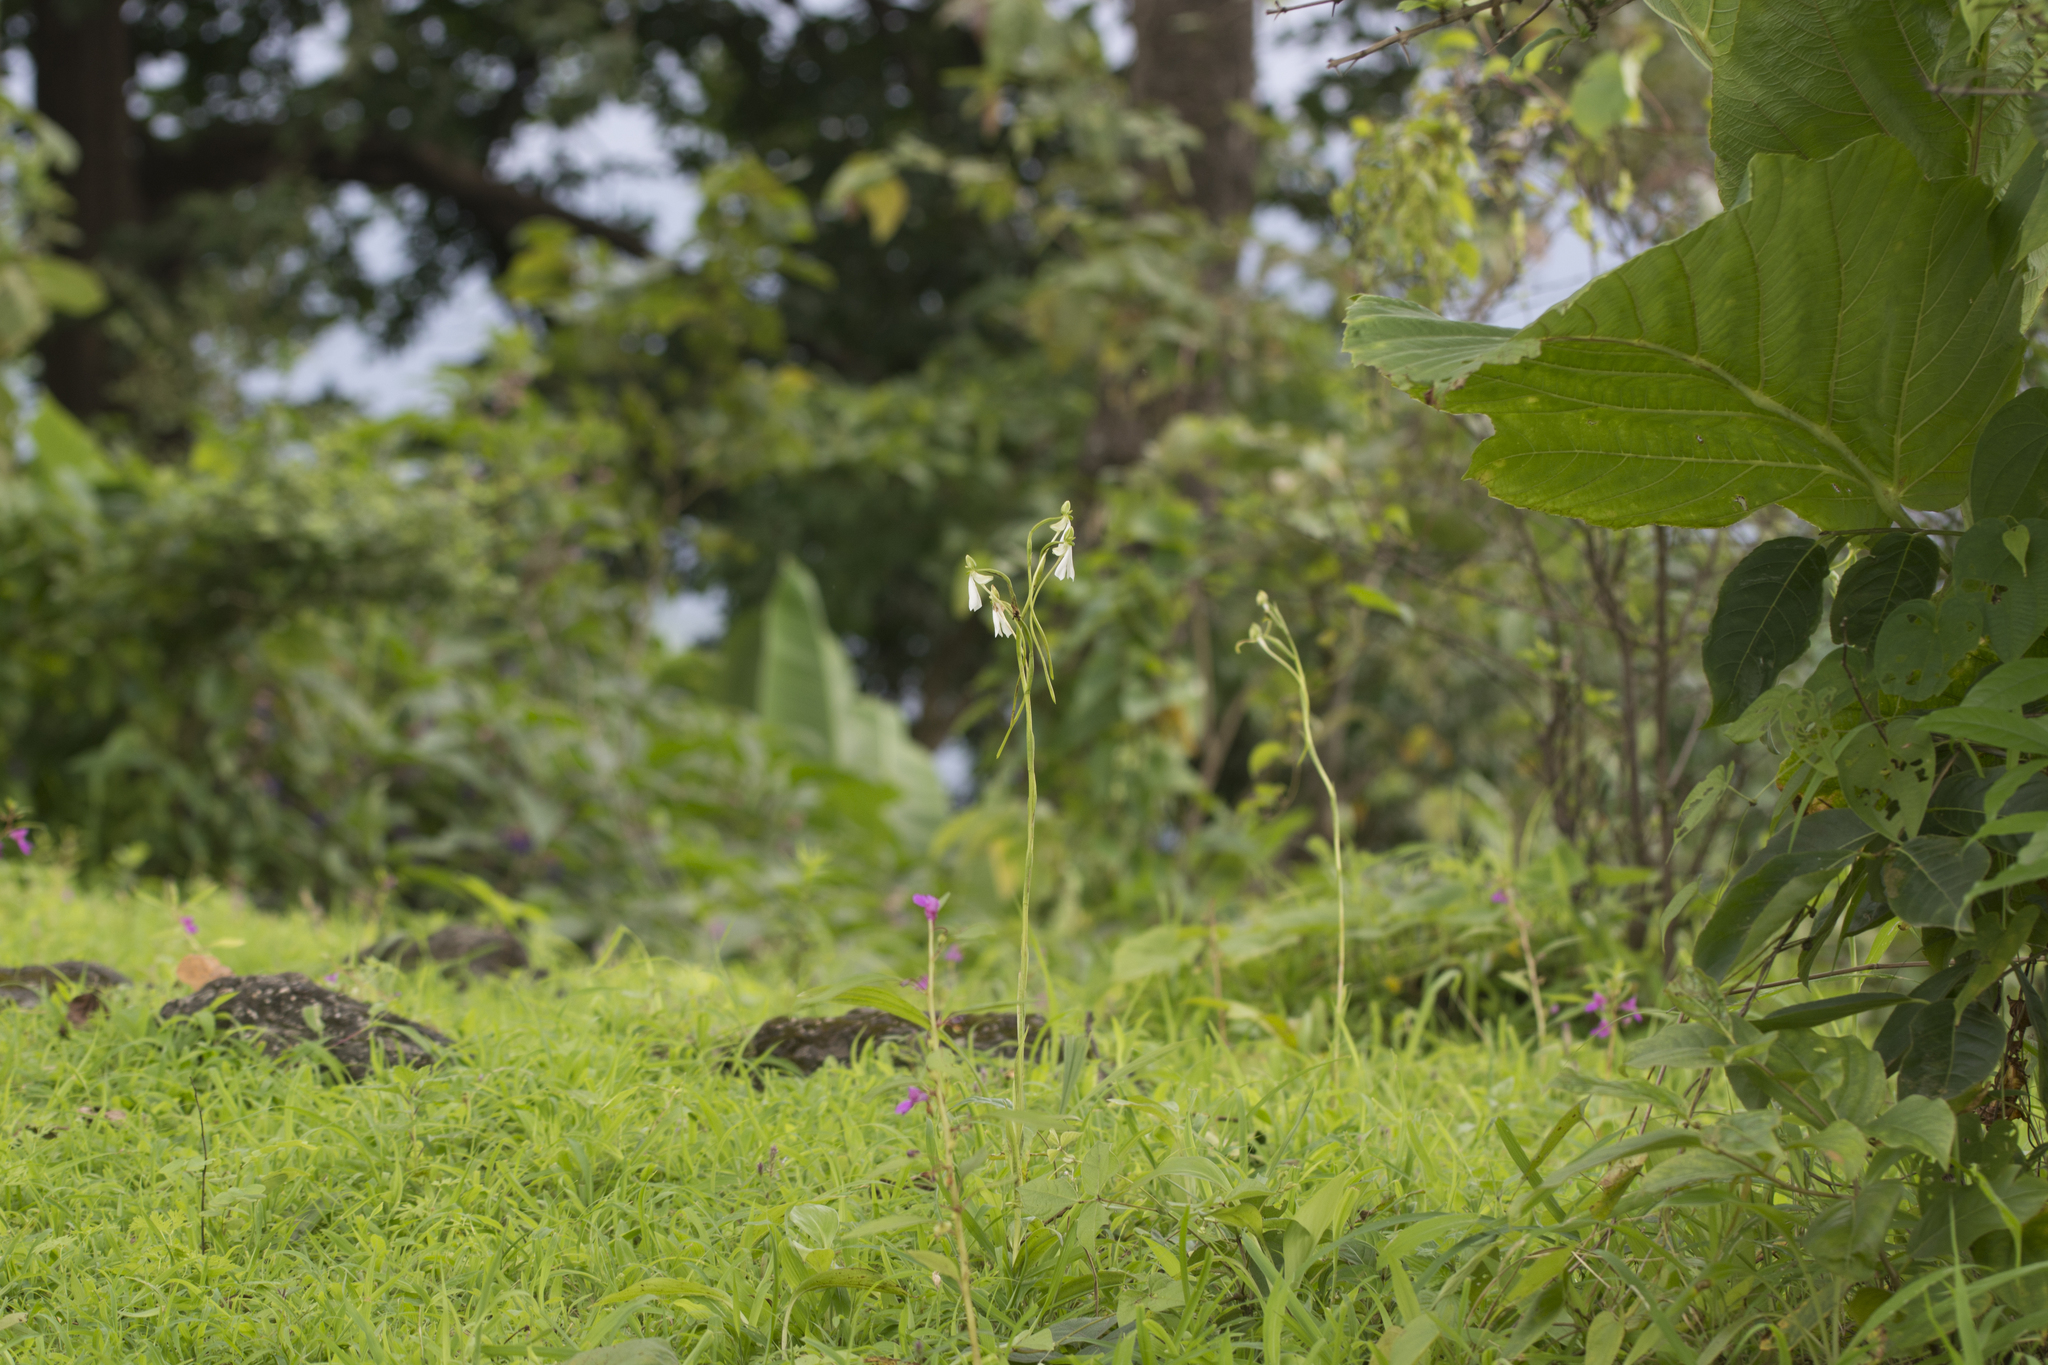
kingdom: Plantae
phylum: Tracheophyta
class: Liliopsida
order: Asparagales
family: Orchidaceae
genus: Habenaria
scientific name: Habenaria longicorniculata
